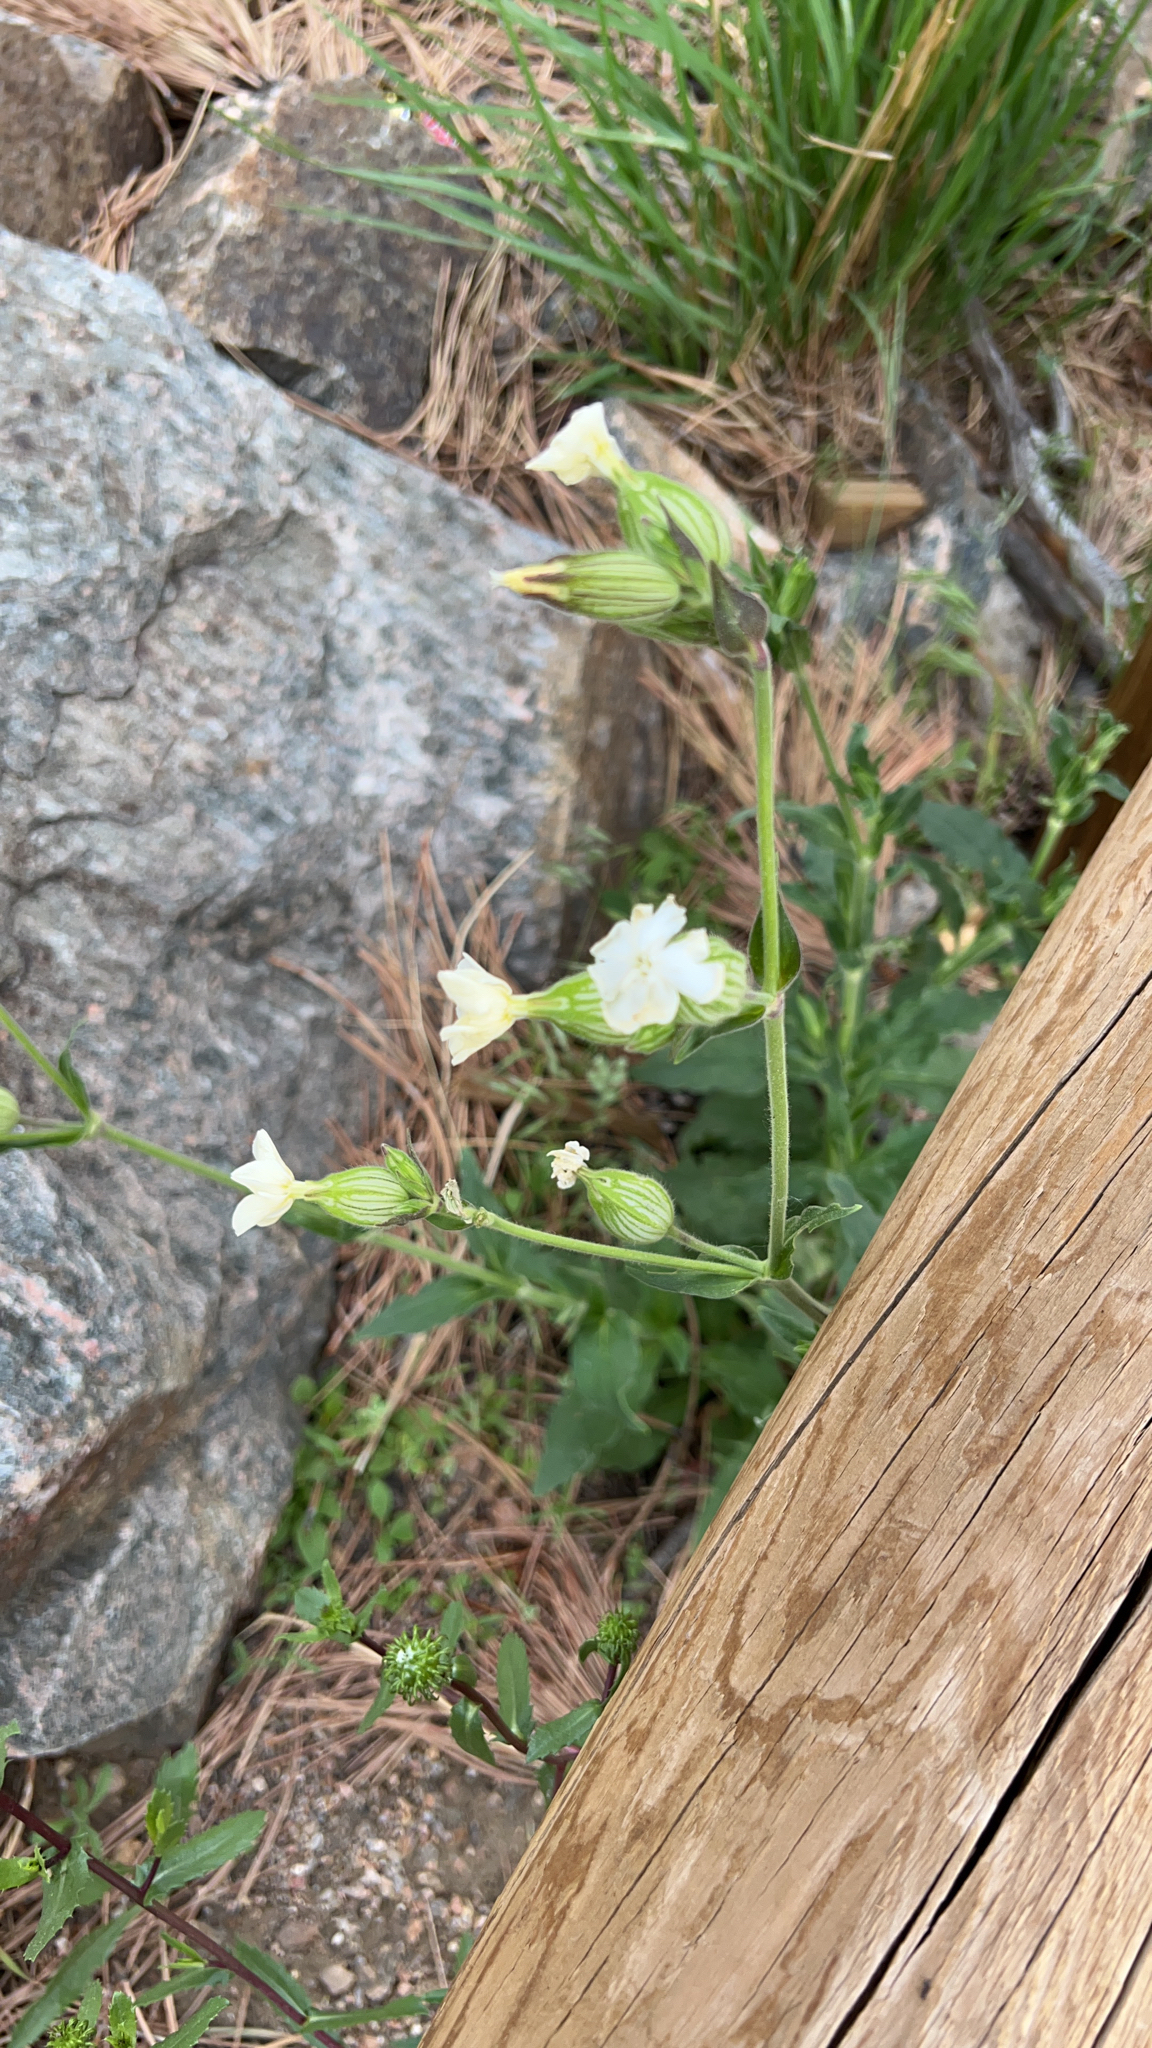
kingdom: Plantae
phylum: Tracheophyta
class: Magnoliopsida
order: Caryophyllales
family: Caryophyllaceae
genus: Silene
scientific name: Silene latifolia
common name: White campion
